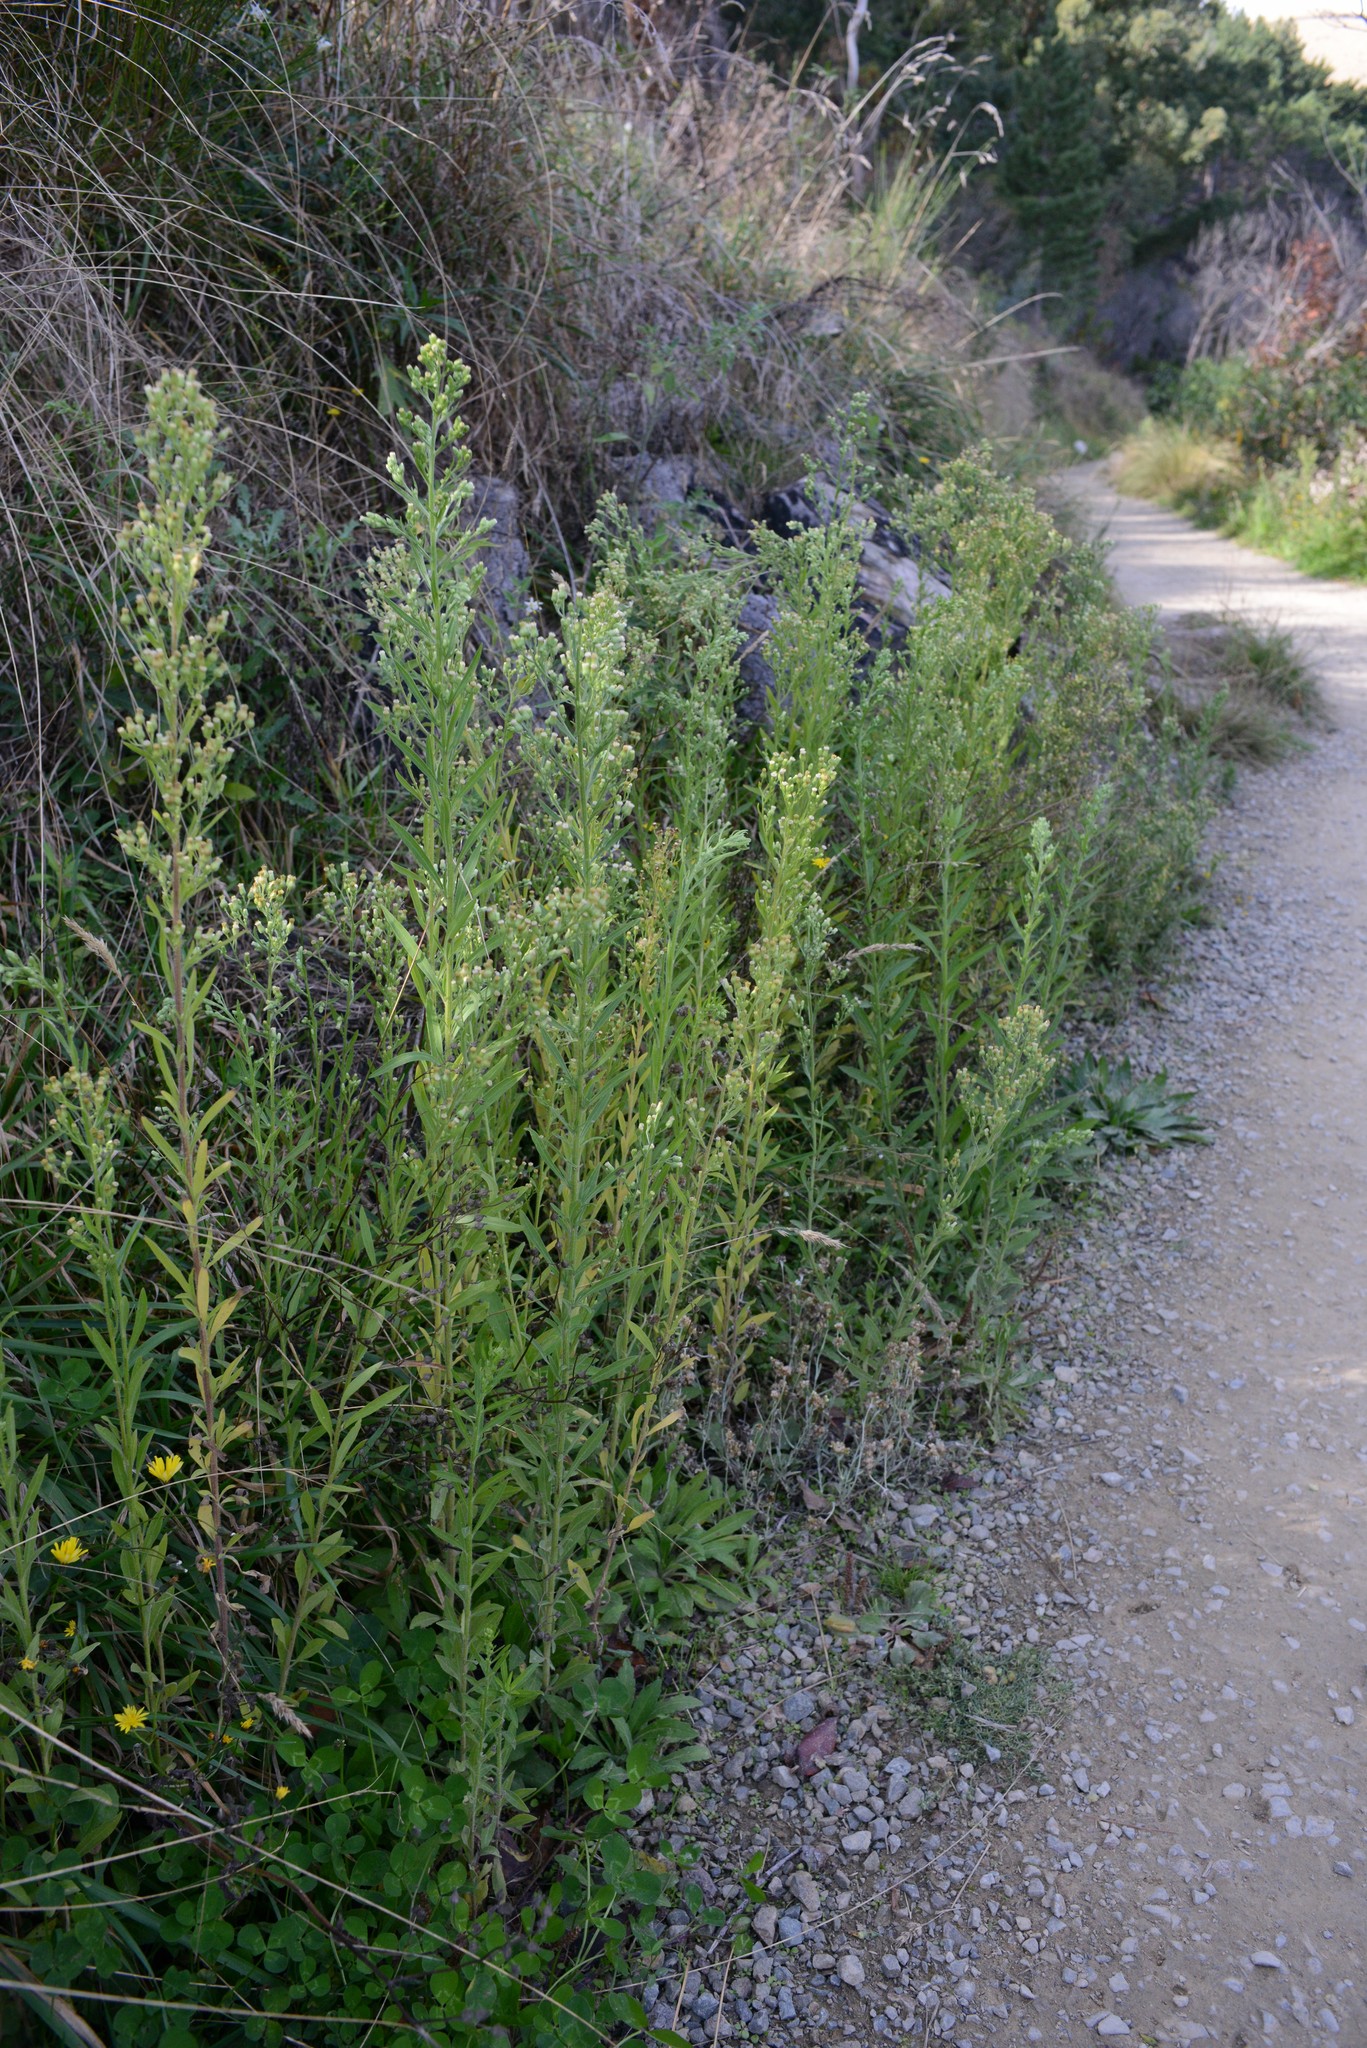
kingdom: Plantae
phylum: Tracheophyta
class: Magnoliopsida
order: Asterales
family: Asteraceae
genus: Erigeron
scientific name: Erigeron sumatrensis
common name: Daisy
